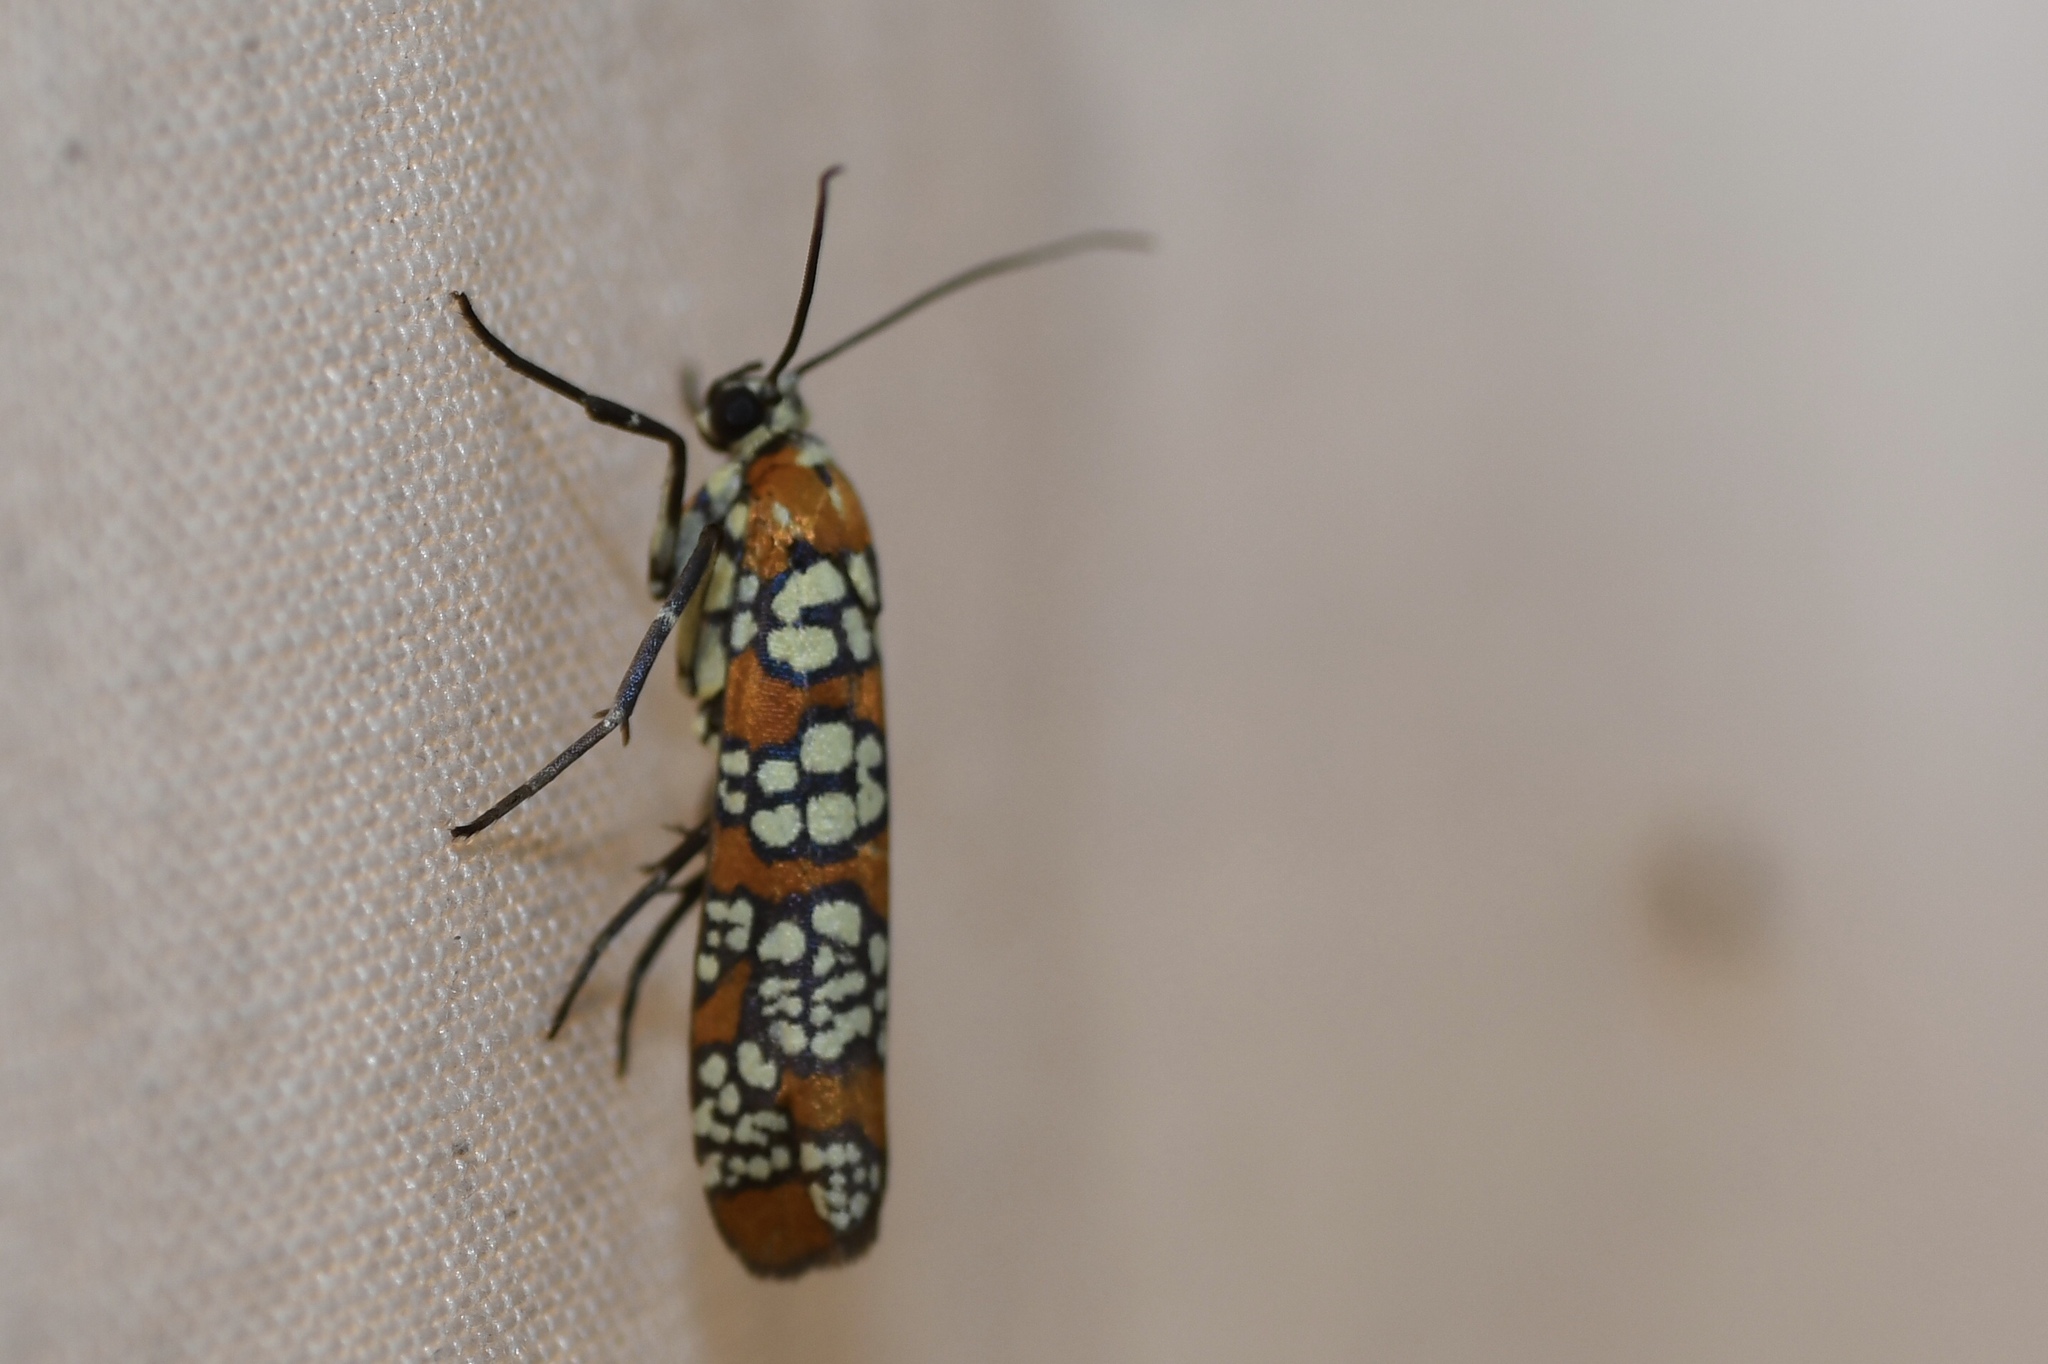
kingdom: Animalia
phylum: Arthropoda
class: Insecta
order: Lepidoptera
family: Attevidae
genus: Atteva
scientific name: Atteva punctella
